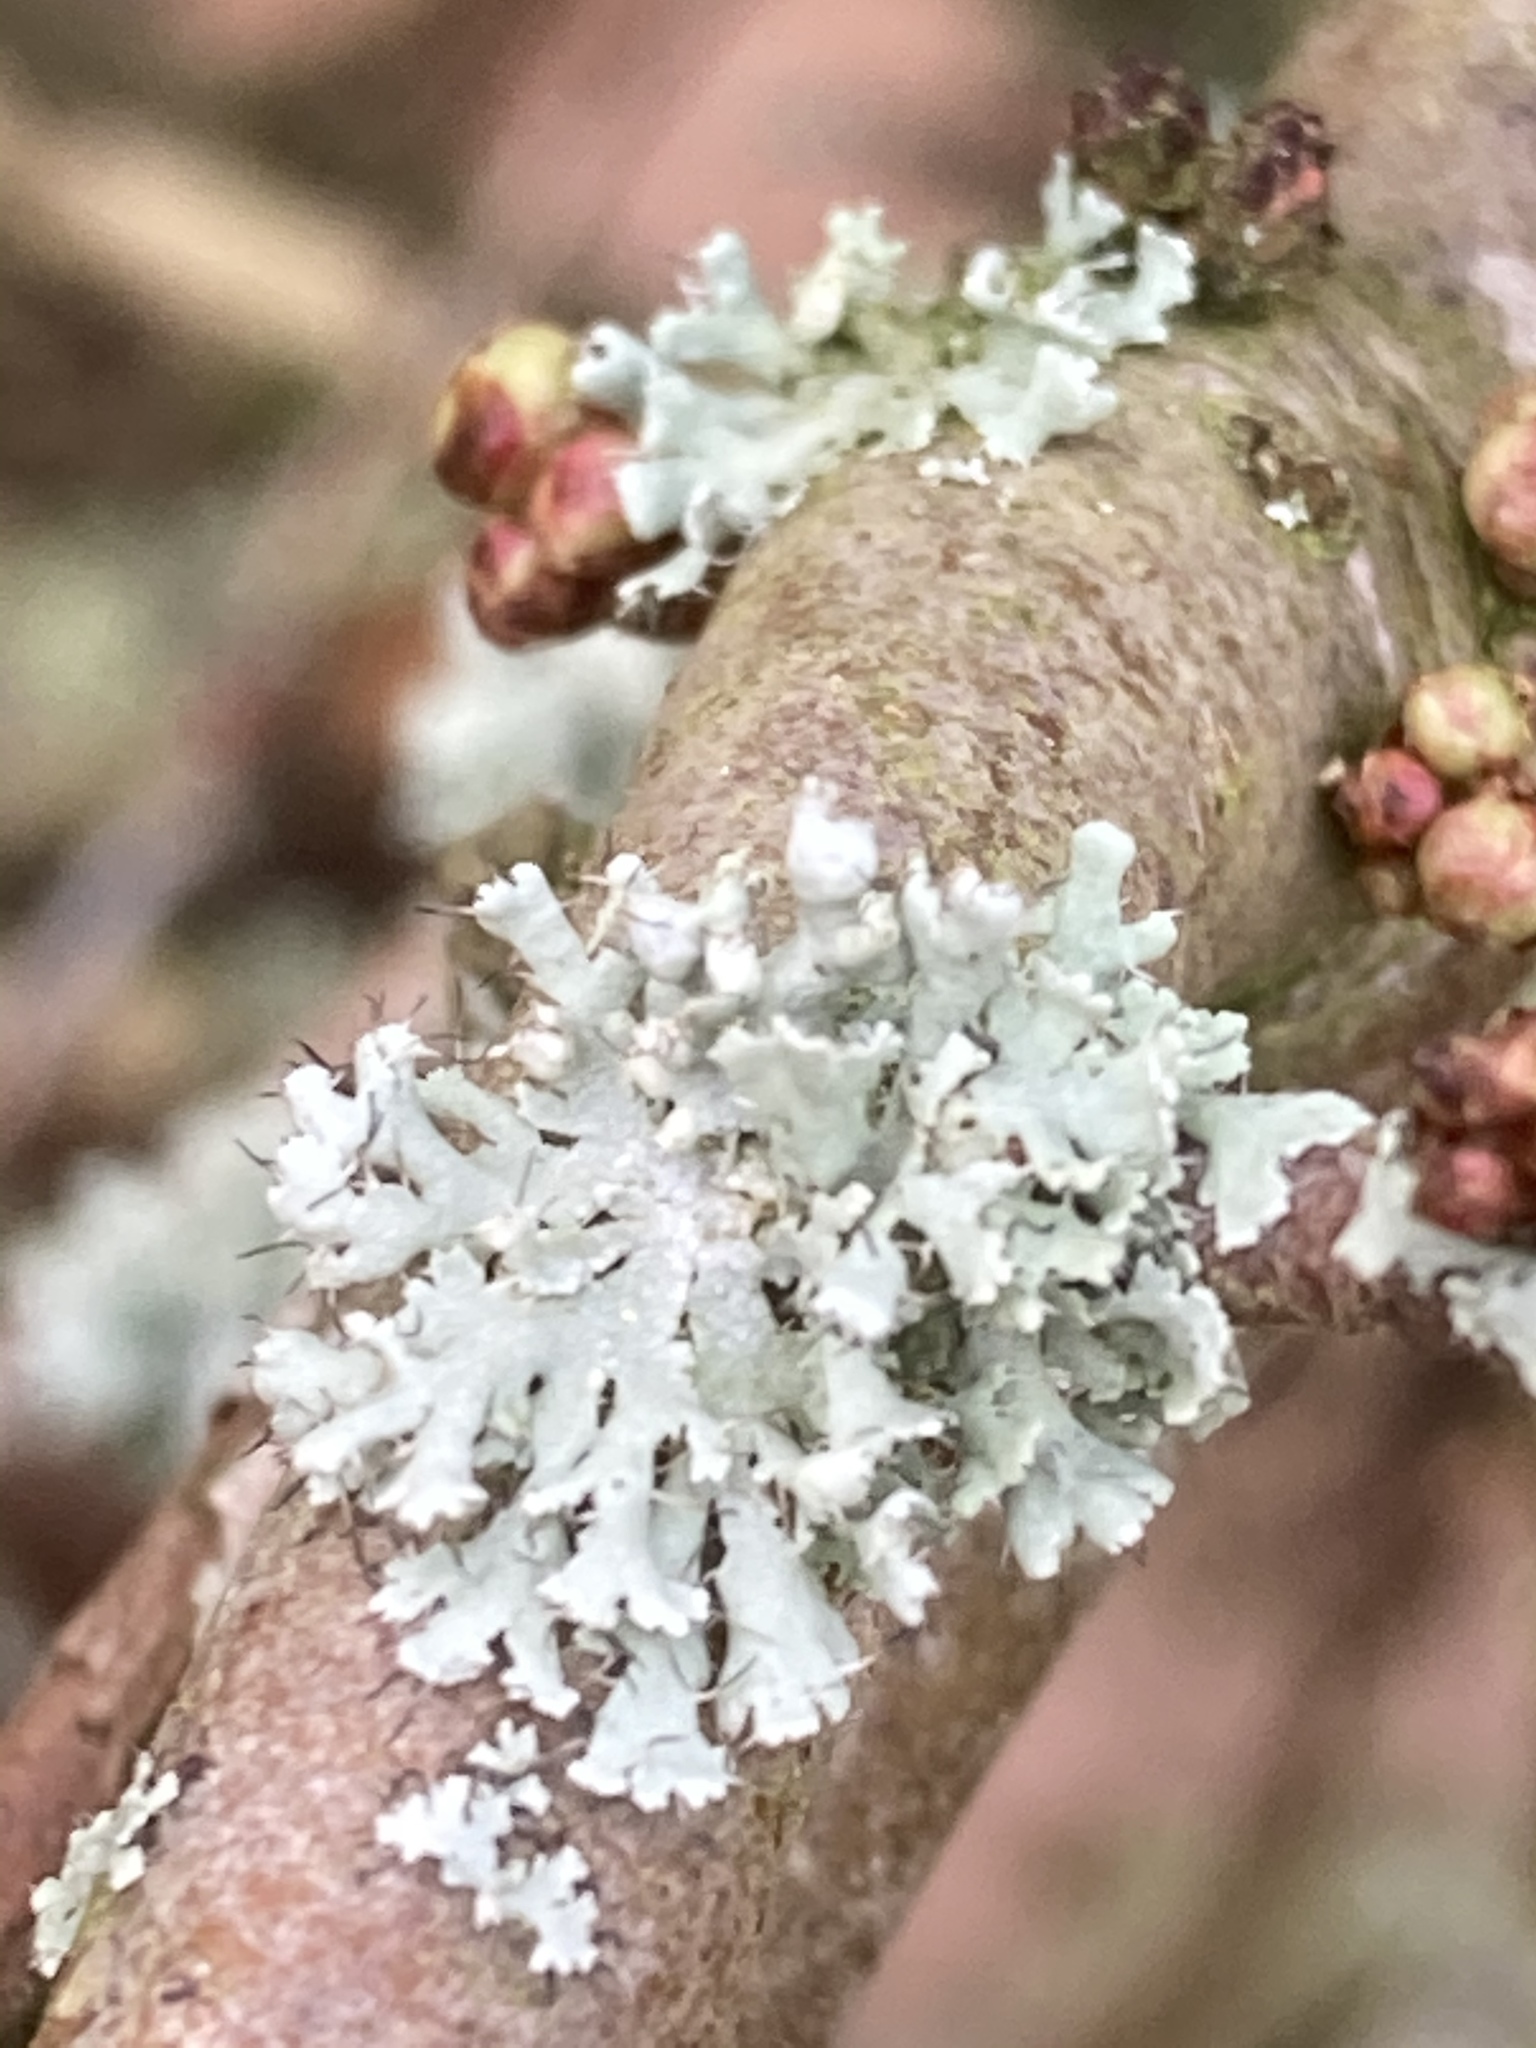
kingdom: Fungi
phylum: Ascomycota
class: Lecanoromycetes
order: Caliciales
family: Physciaceae
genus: Physcia
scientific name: Physcia adscendens
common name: Hooded rosette lichen
